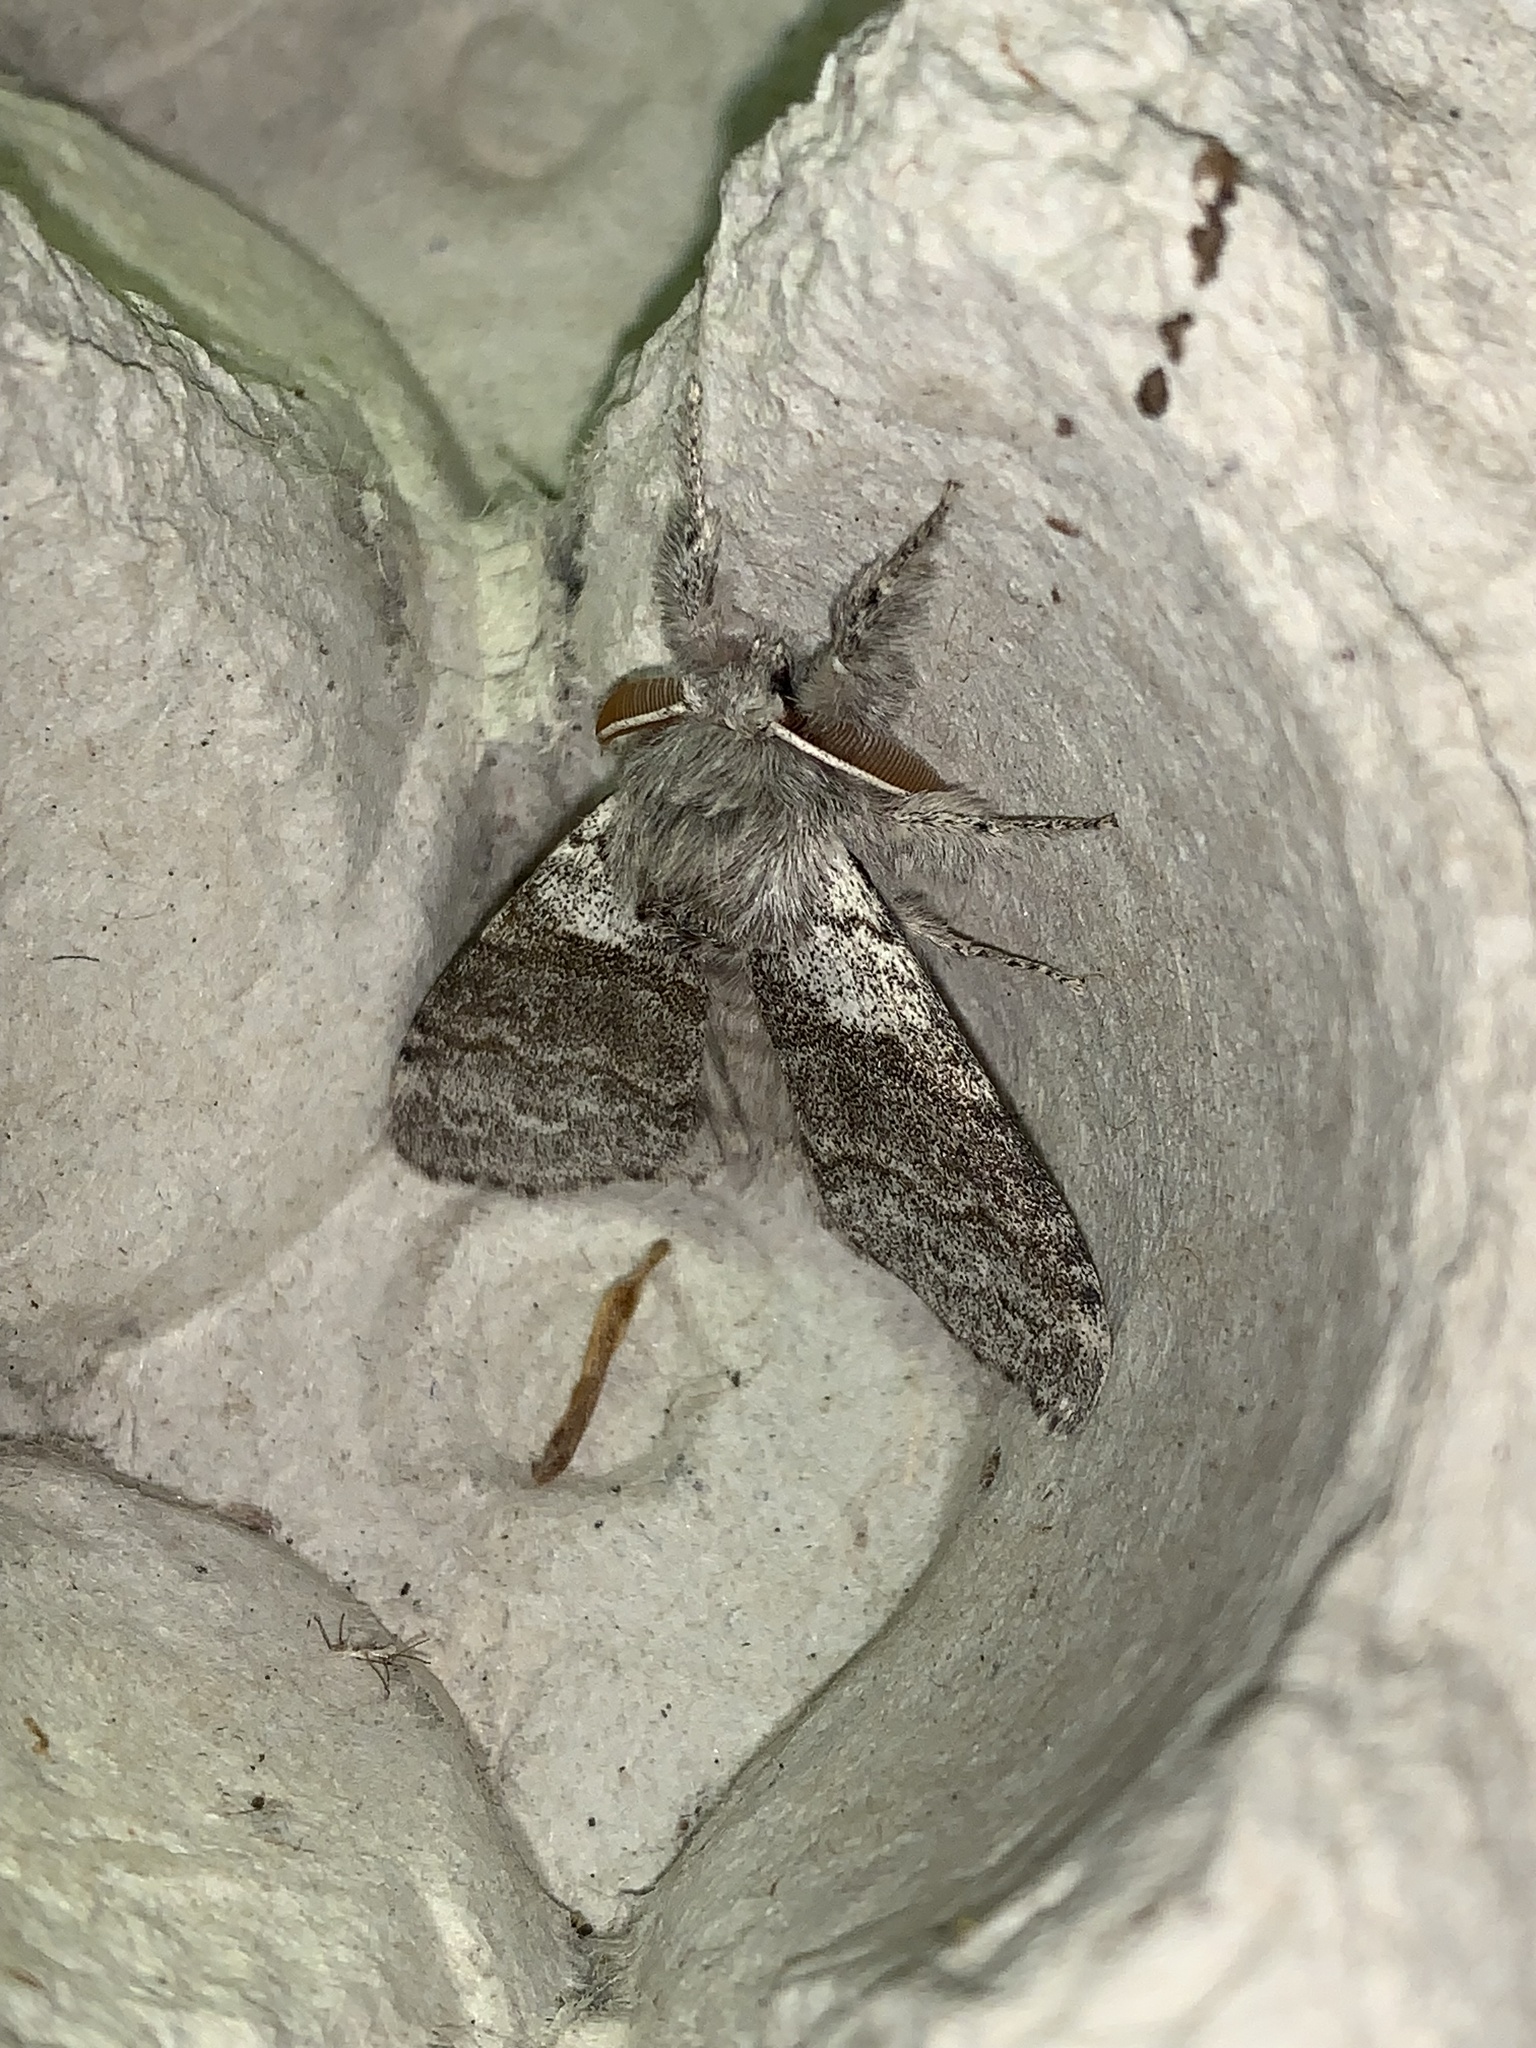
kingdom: Animalia
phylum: Arthropoda
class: Insecta
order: Lepidoptera
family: Erebidae
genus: Calliteara
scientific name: Calliteara pudibunda
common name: Pale tussock
